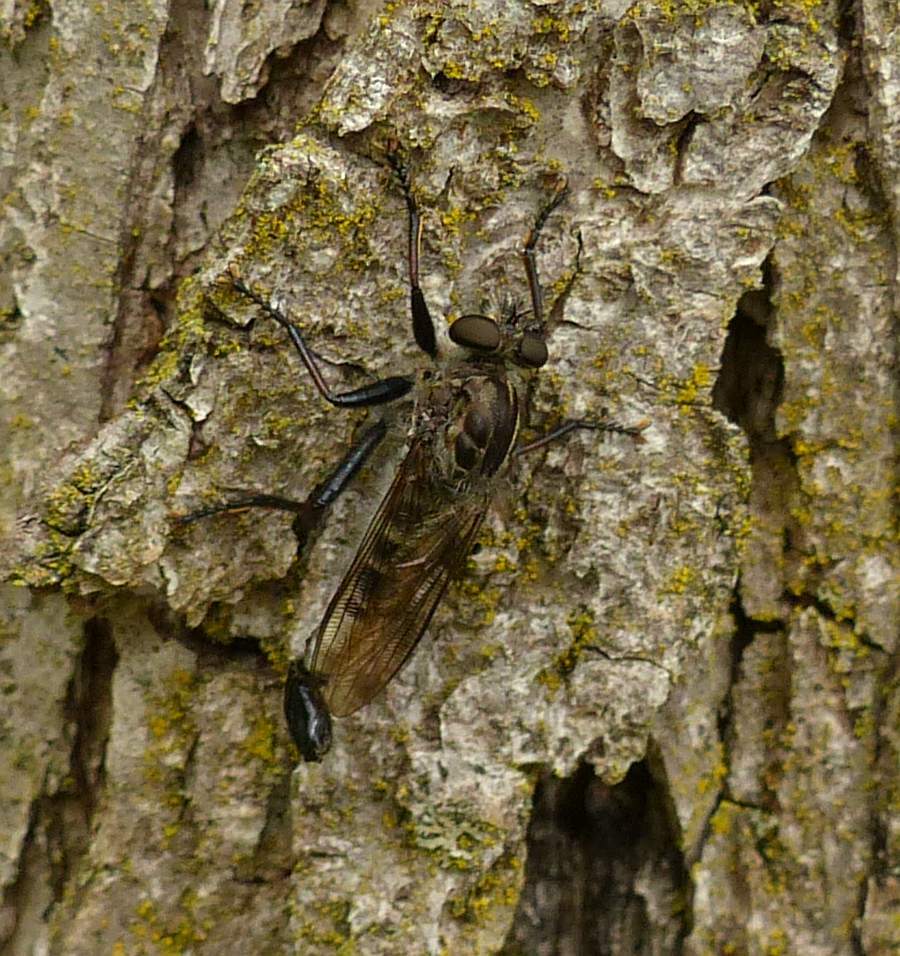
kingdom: Animalia
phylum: Arthropoda
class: Insecta
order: Diptera
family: Asilidae
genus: Efferia
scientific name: Efferia aestuans
